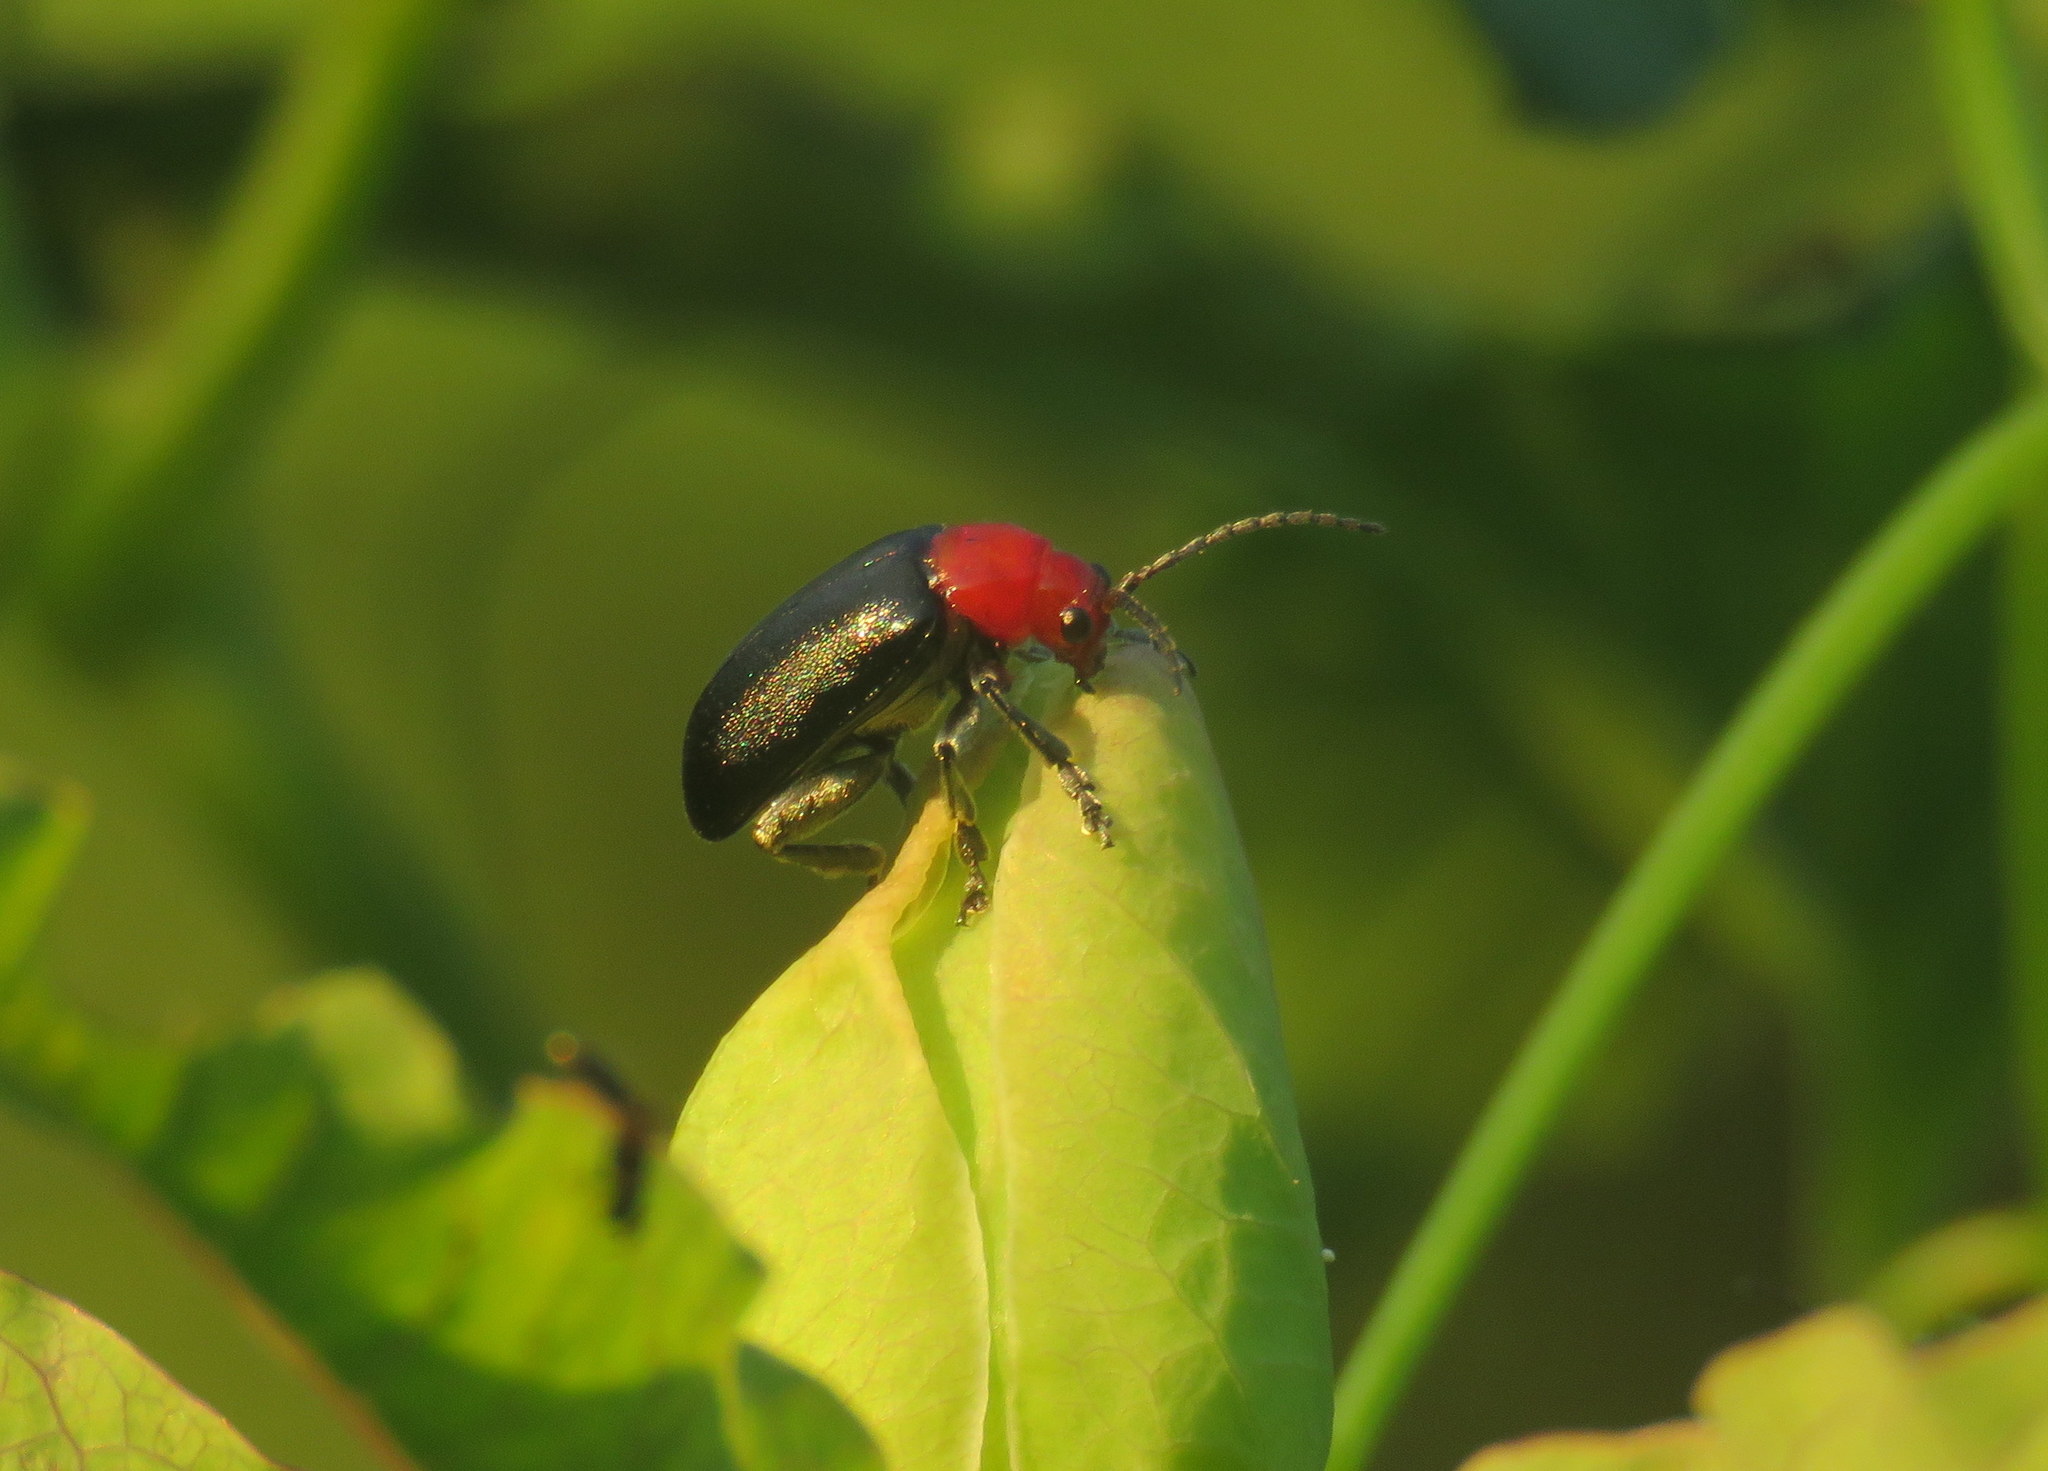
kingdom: Animalia
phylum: Arthropoda
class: Insecta
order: Coleoptera
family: Chrysomelidae
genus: Cacoscelis
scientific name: Cacoscelis
